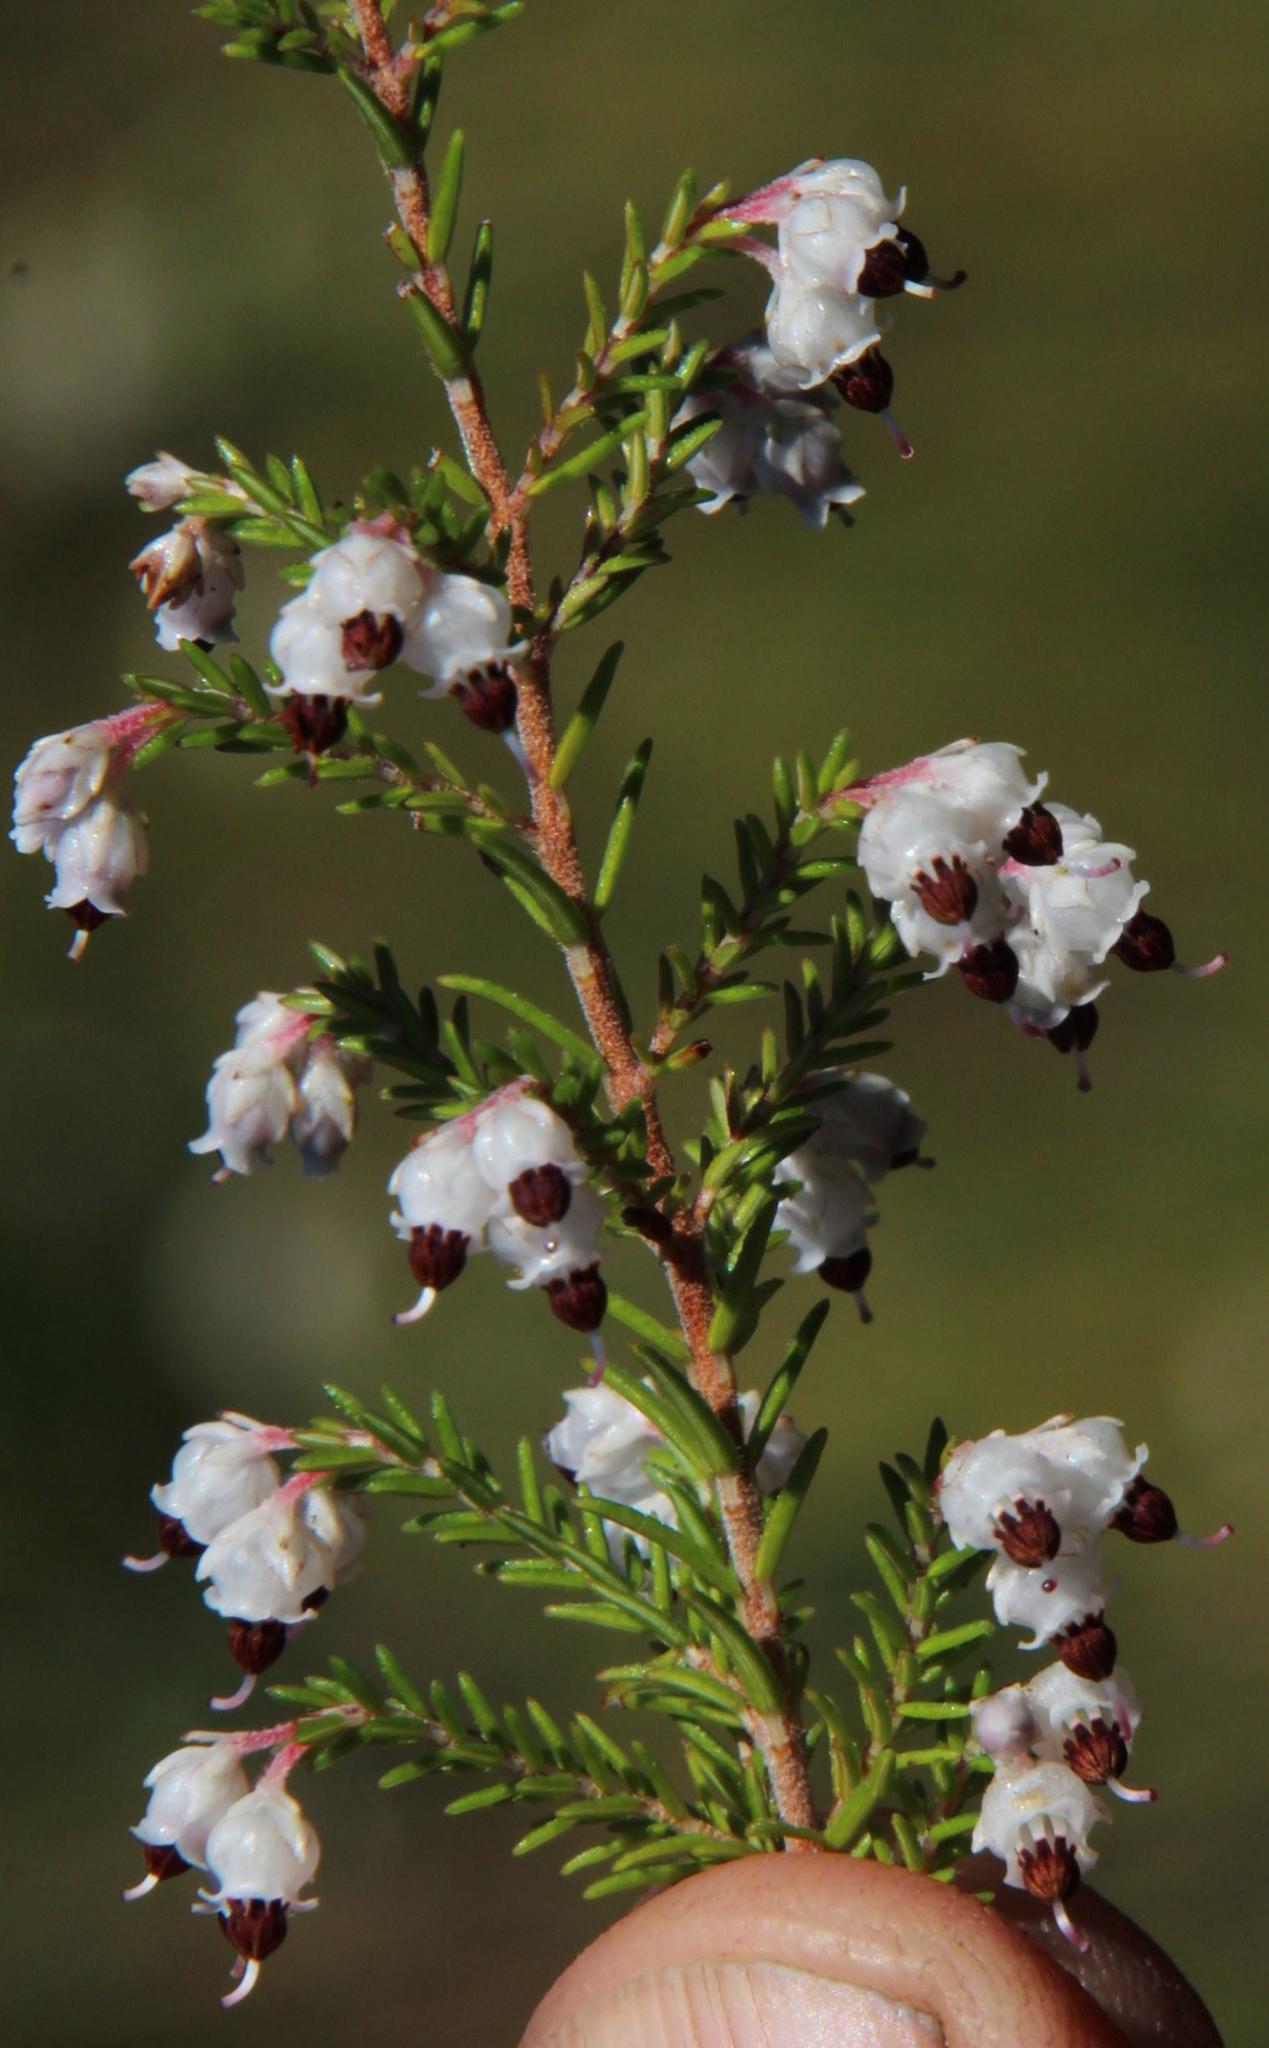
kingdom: Plantae
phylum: Tracheophyta
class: Magnoliopsida
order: Ericales
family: Ericaceae
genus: Erica
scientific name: Erica triceps
